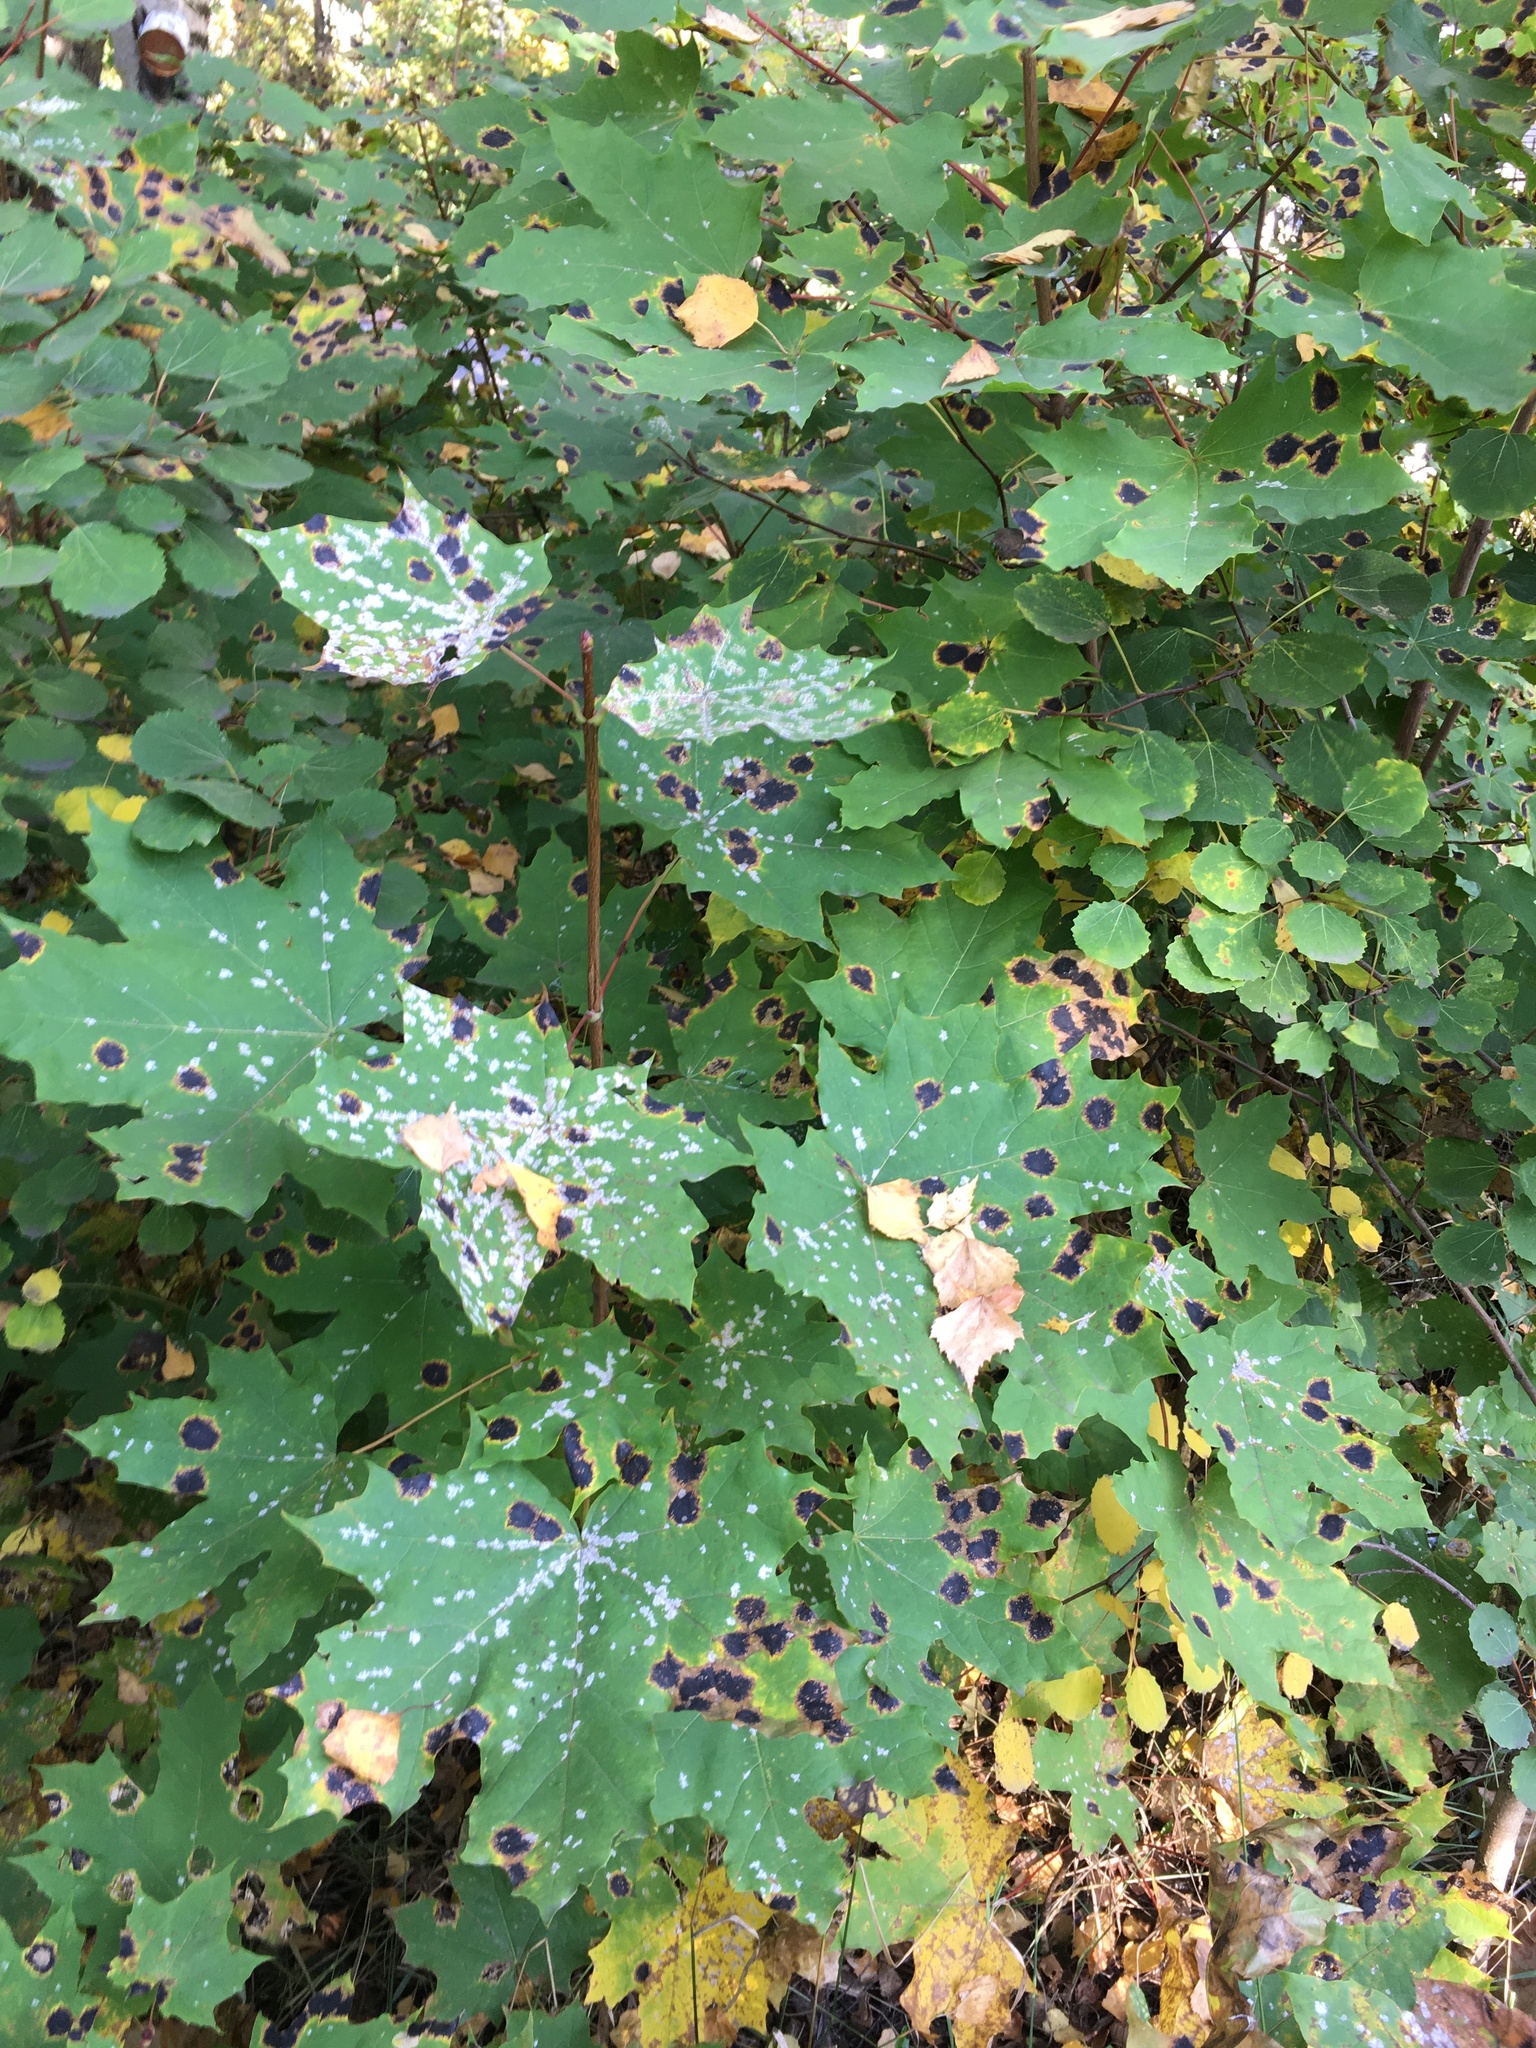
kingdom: Fungi
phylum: Ascomycota
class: Leotiomycetes
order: Rhytismatales
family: Rhytismataceae
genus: Rhytisma
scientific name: Rhytisma acerinum
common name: European tar spot
